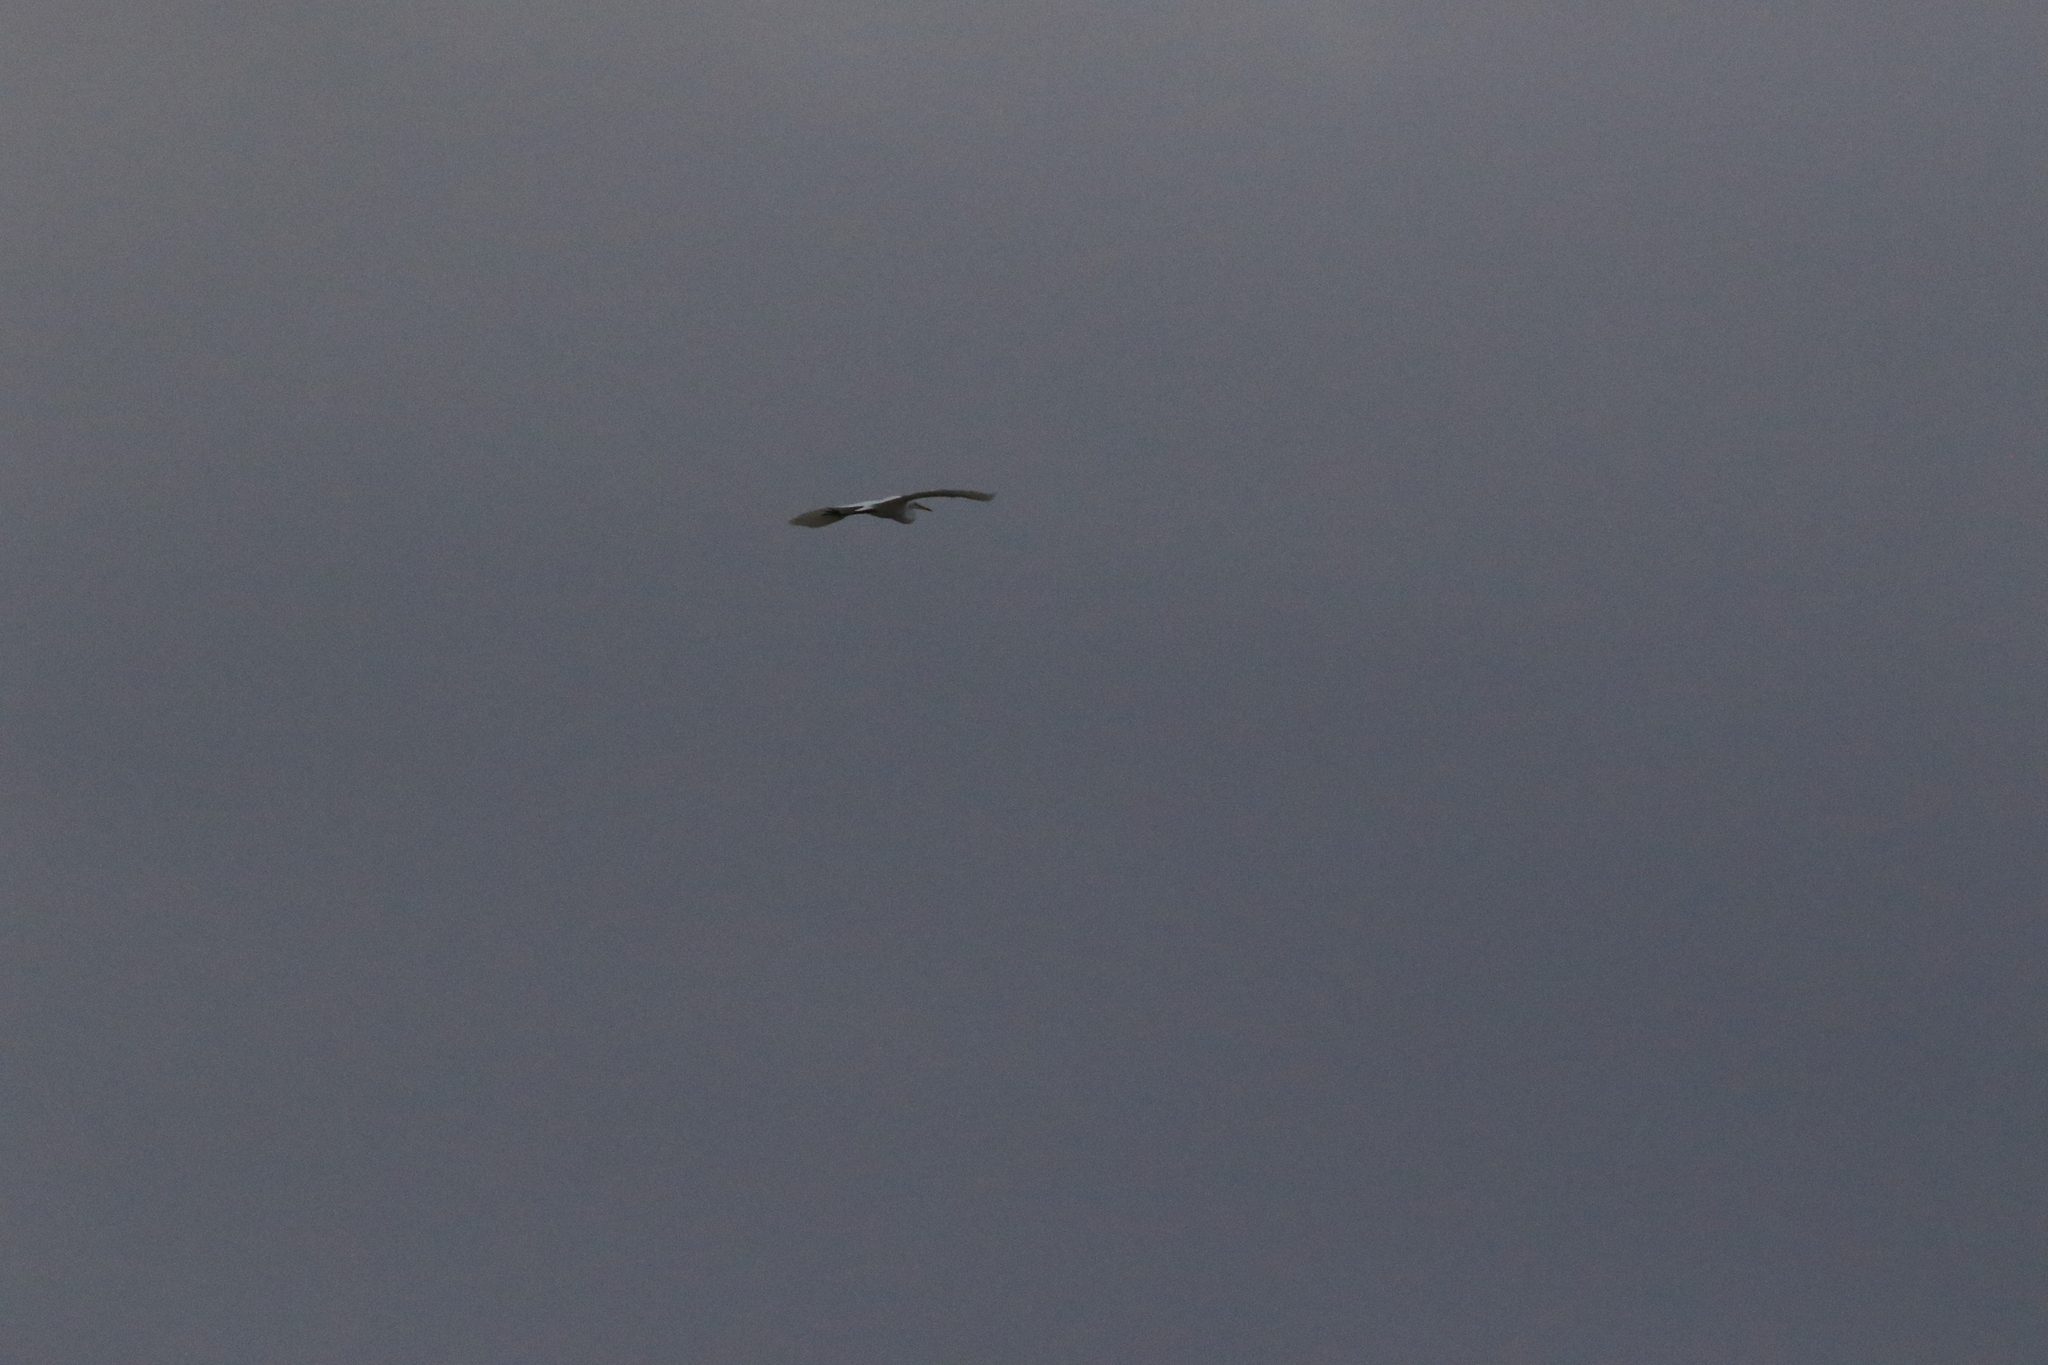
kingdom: Animalia
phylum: Chordata
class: Aves
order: Pelecaniformes
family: Ardeidae
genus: Ardea
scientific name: Ardea alba
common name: Great egret
